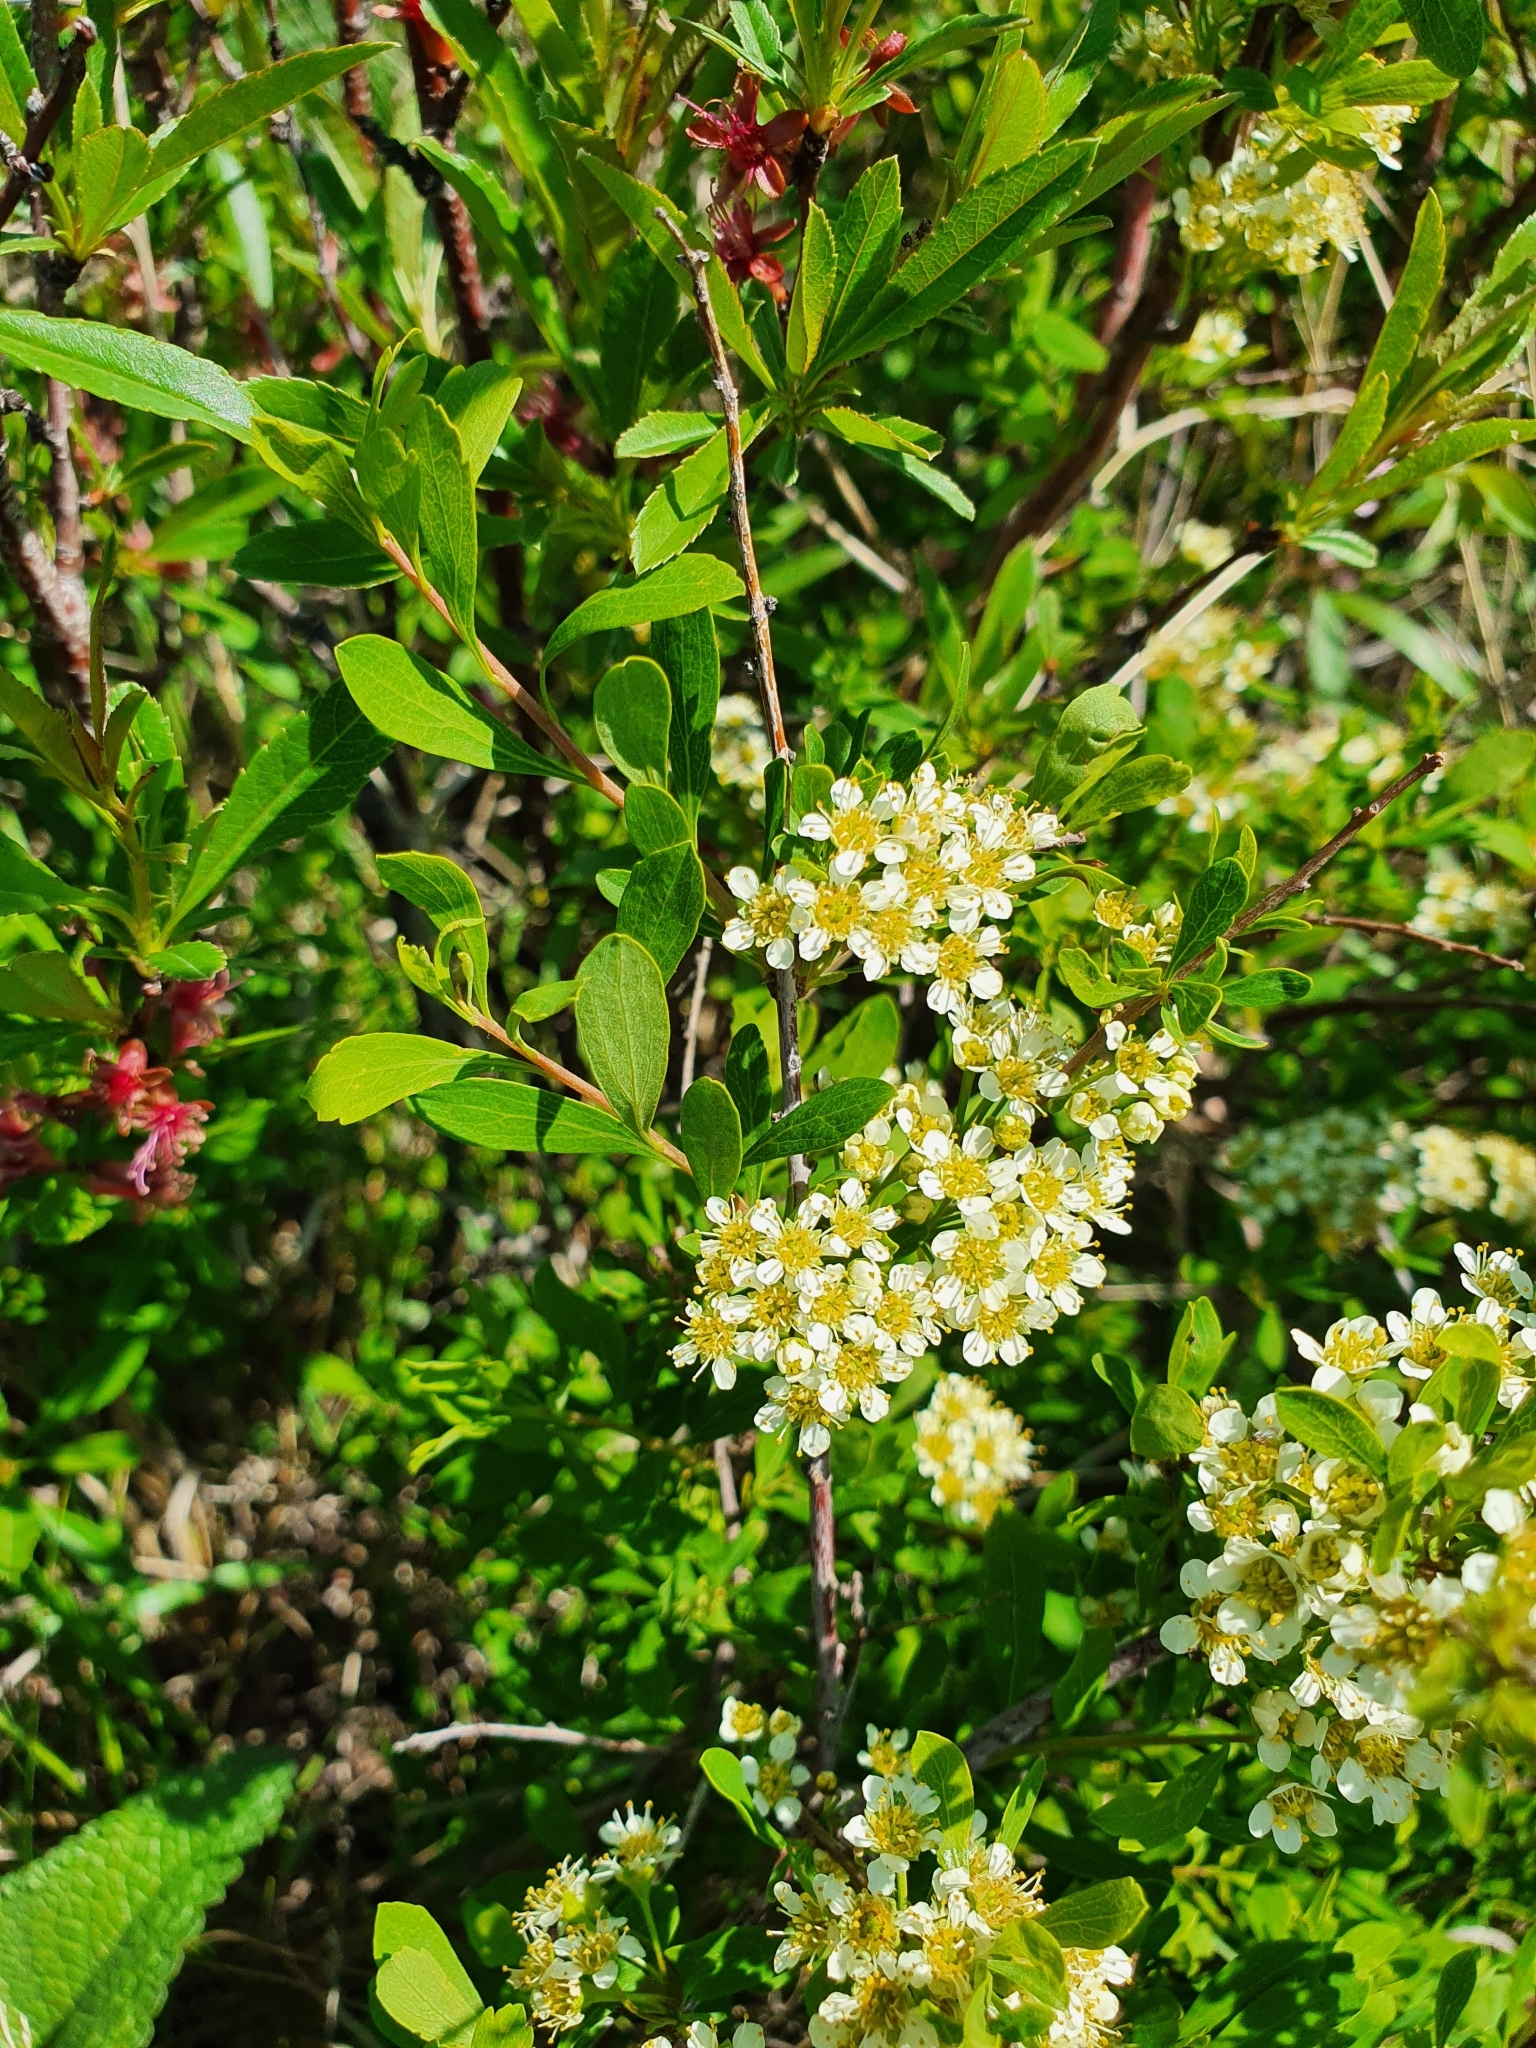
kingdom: Plantae
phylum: Tracheophyta
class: Magnoliopsida
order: Rosales
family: Rosaceae
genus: Spiraea
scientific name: Spiraea hypericifolia
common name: Iberian spirea
